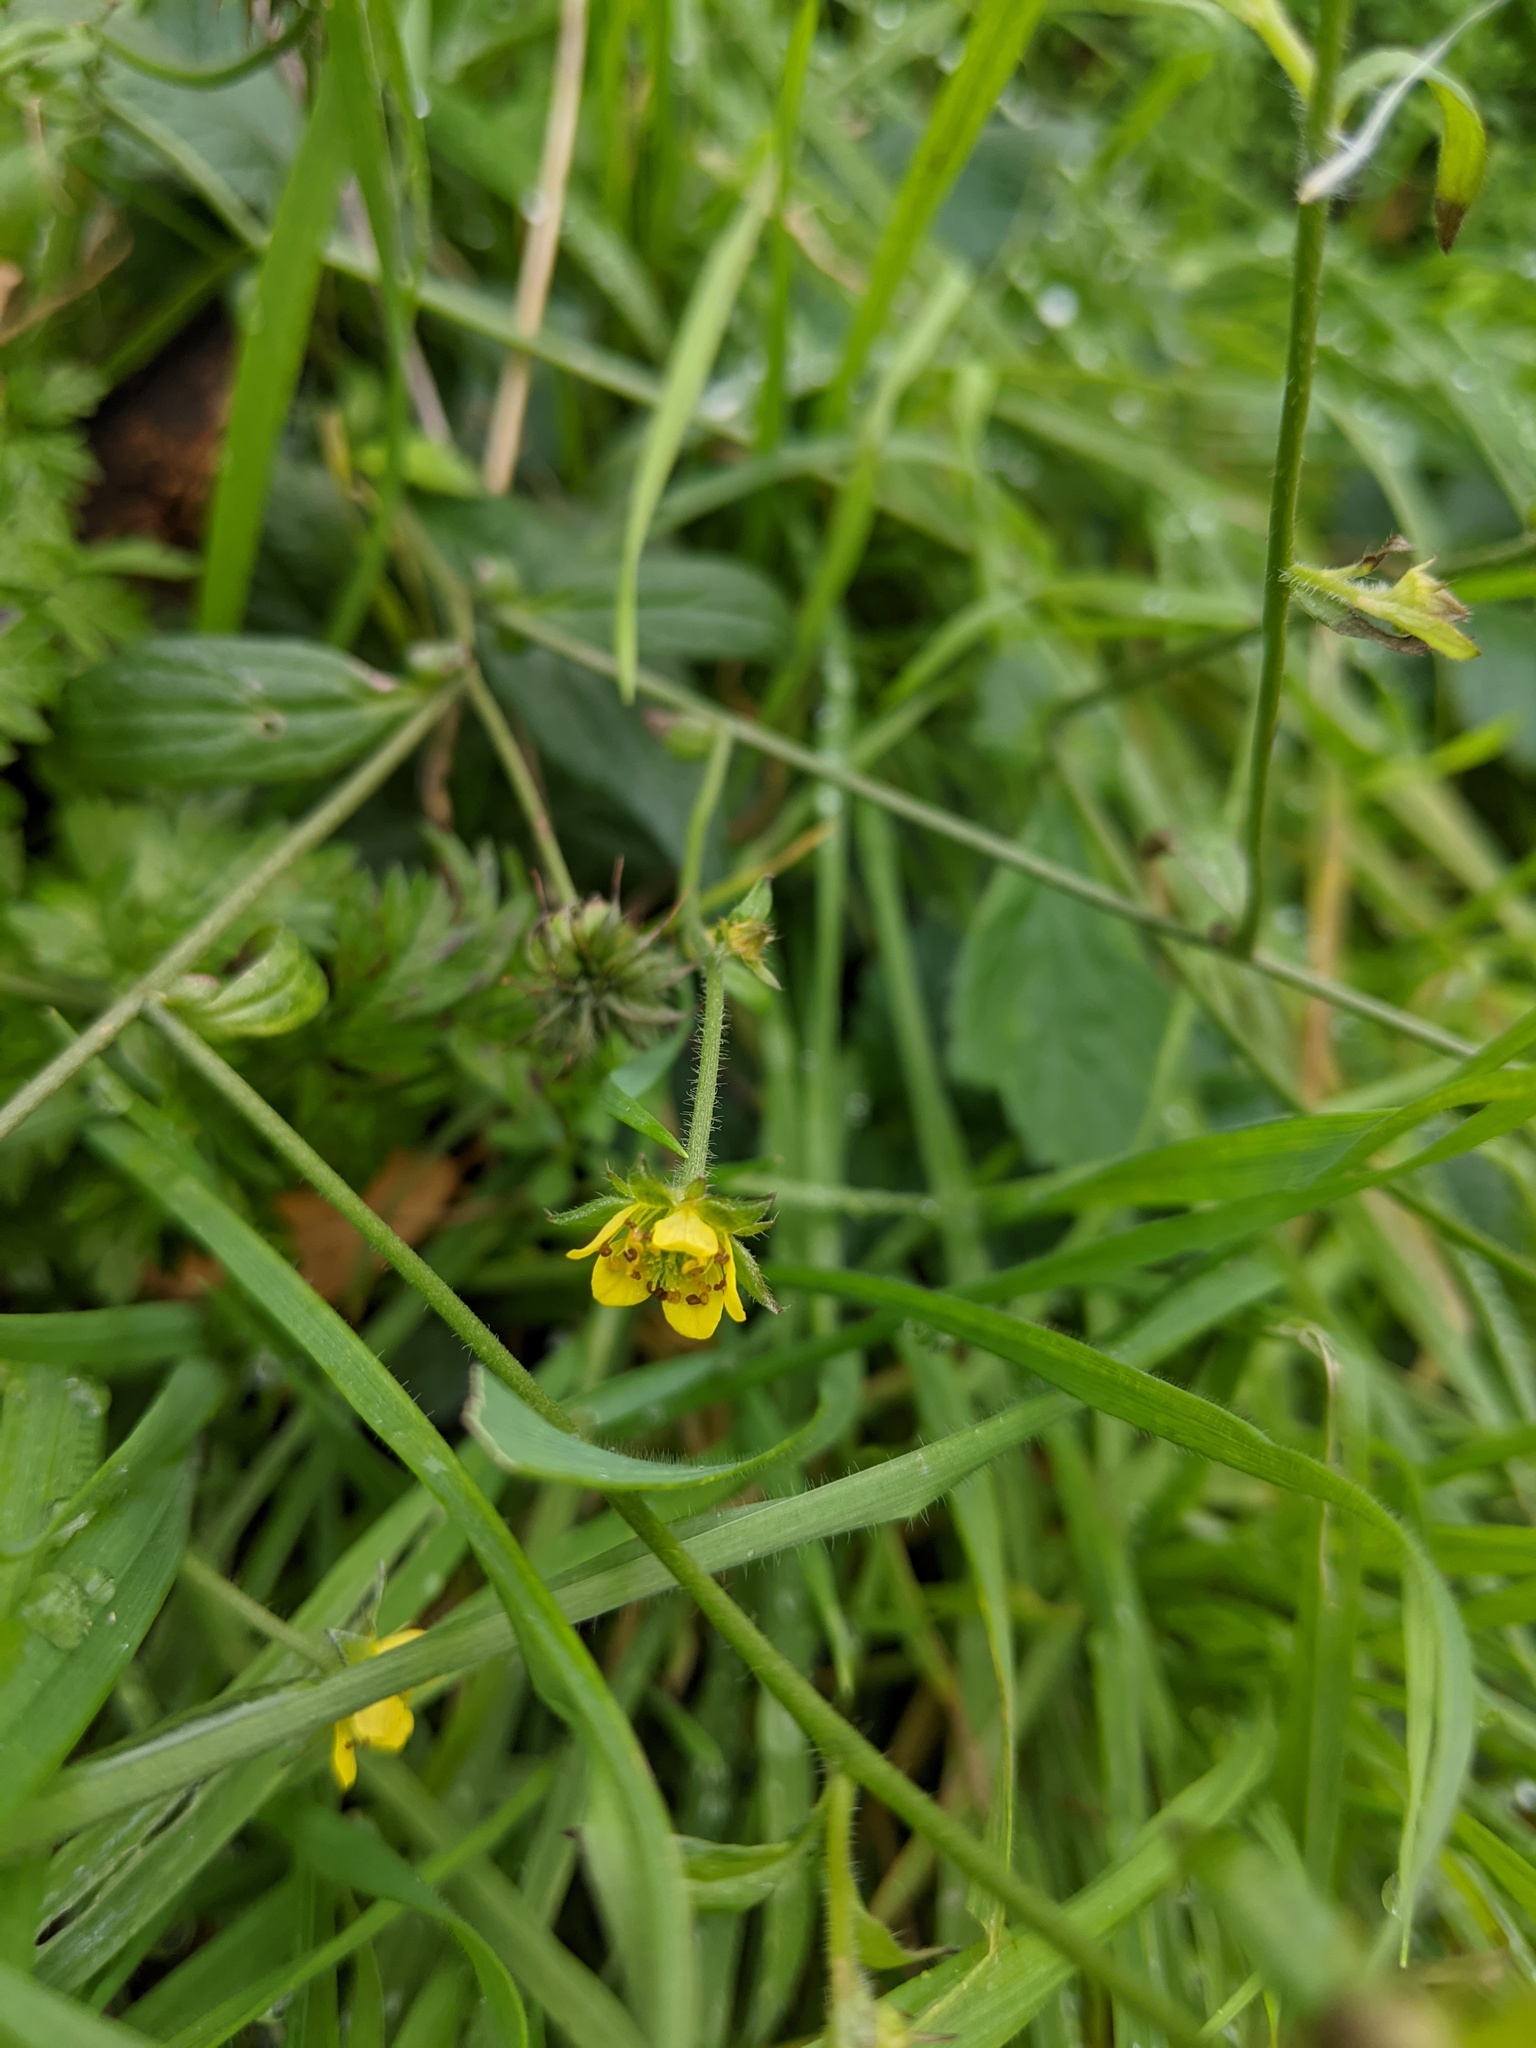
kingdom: Plantae
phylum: Tracheophyta
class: Magnoliopsida
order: Rosales
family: Rosaceae
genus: Geum
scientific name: Geum urbanum
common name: Wood avens
